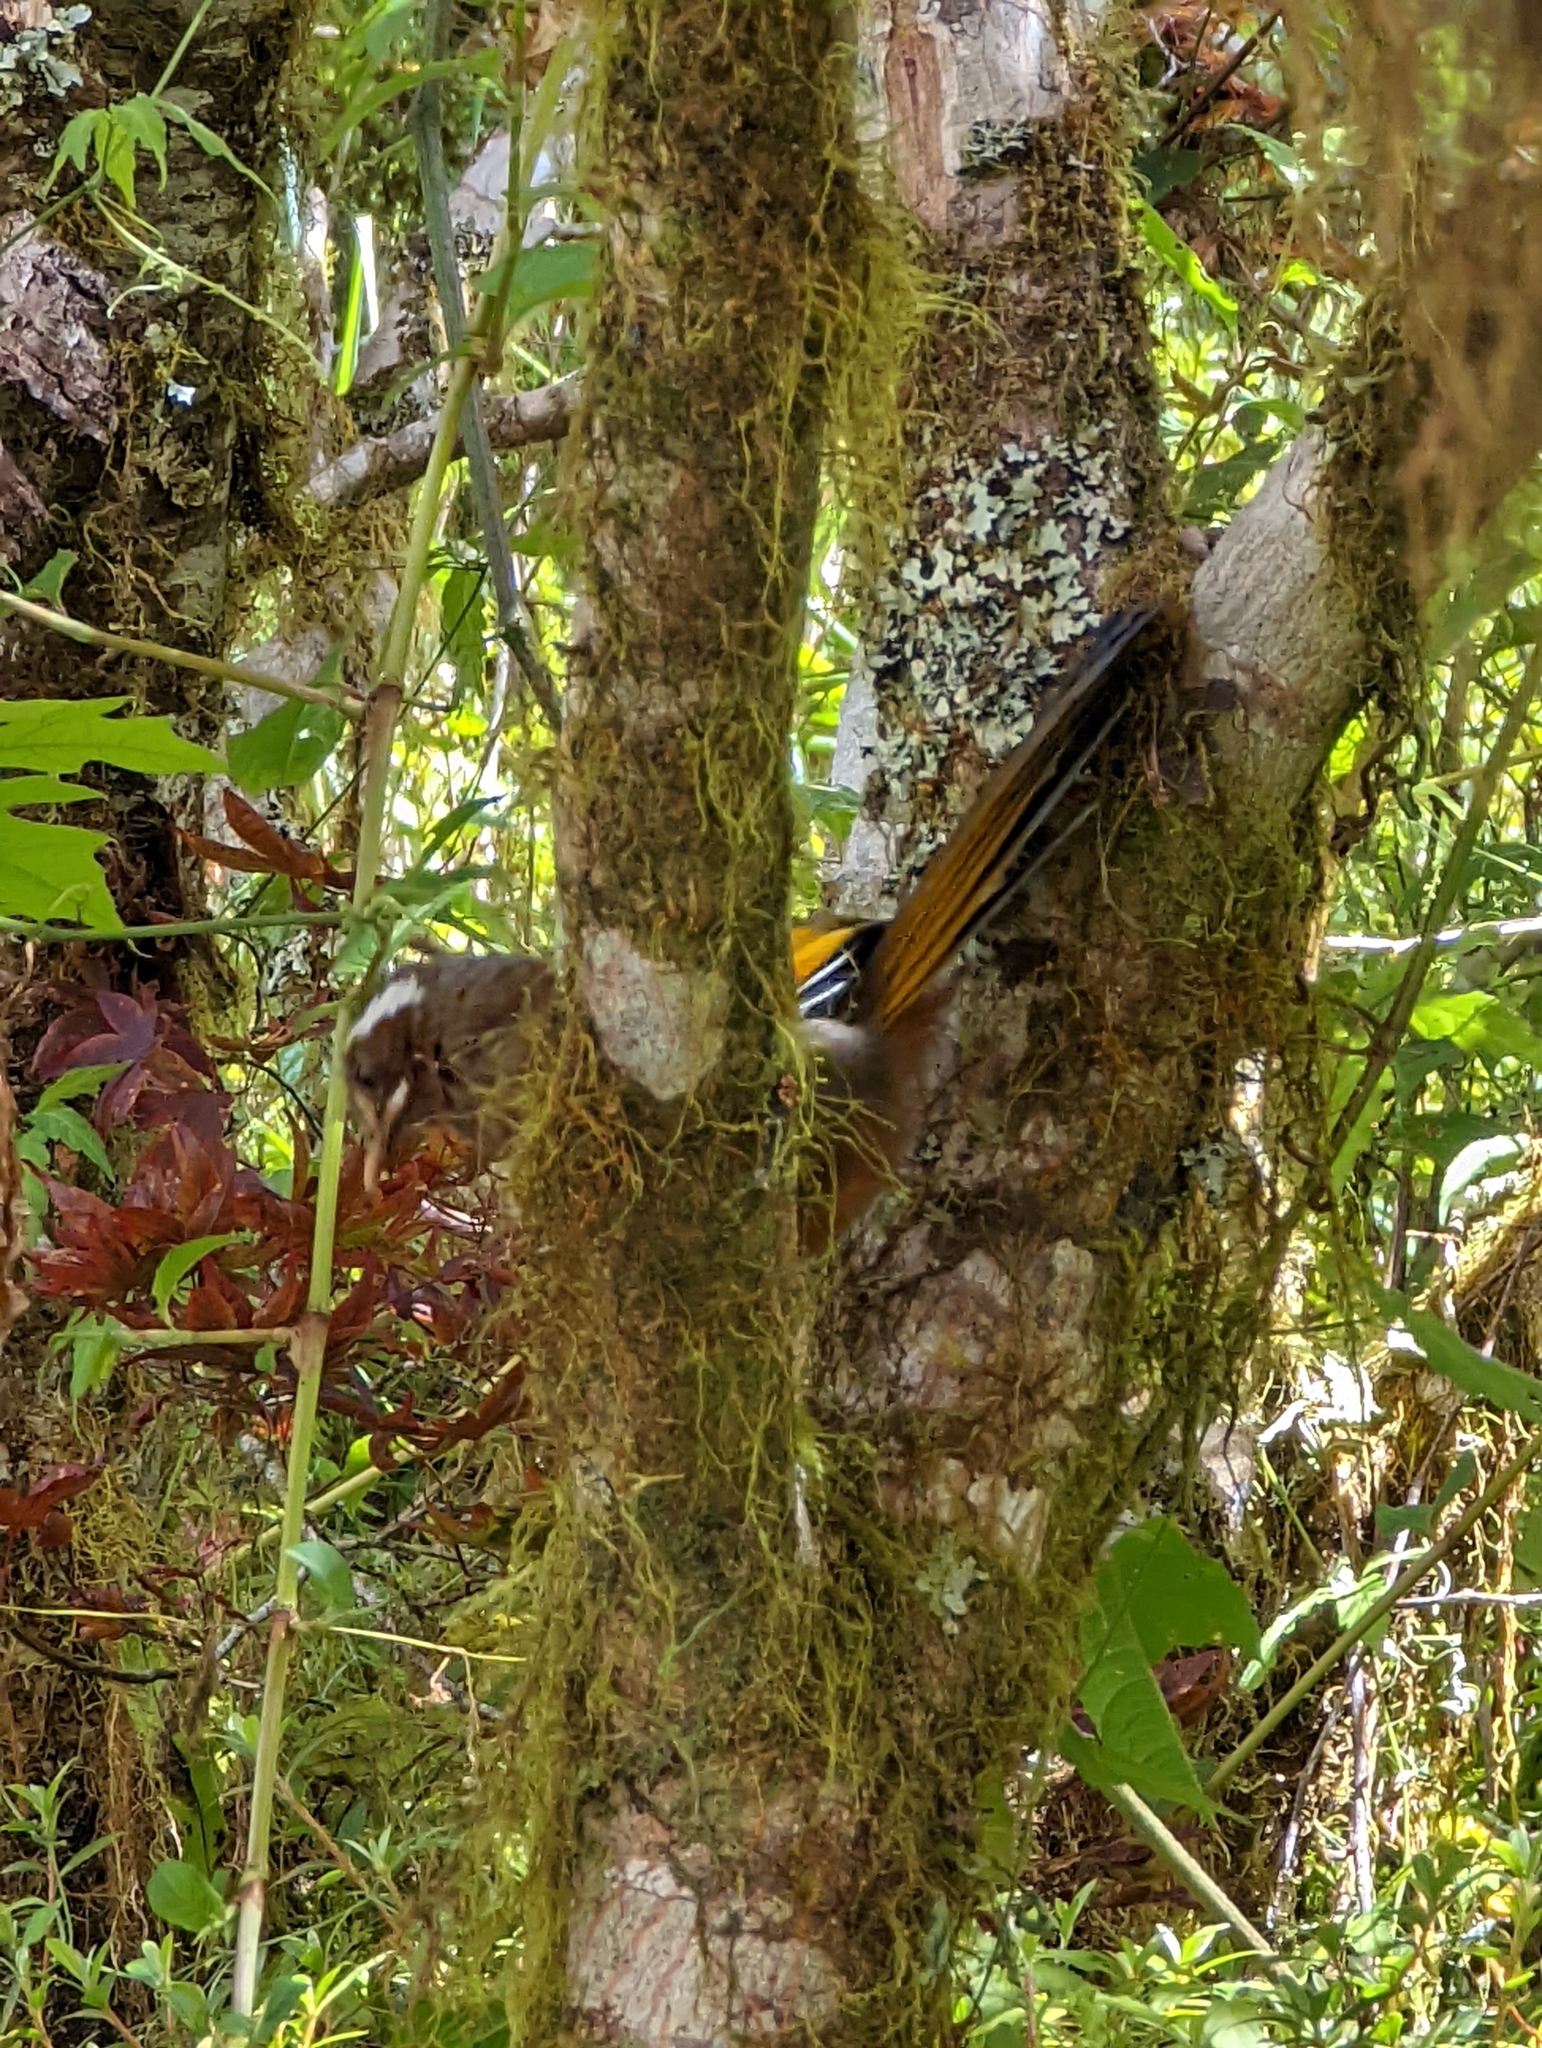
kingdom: Animalia
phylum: Chordata
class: Aves
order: Passeriformes
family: Leiothrichidae
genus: Trochalopteron
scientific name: Trochalopteron morrisonianum
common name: White-whiskered laughingthrush
